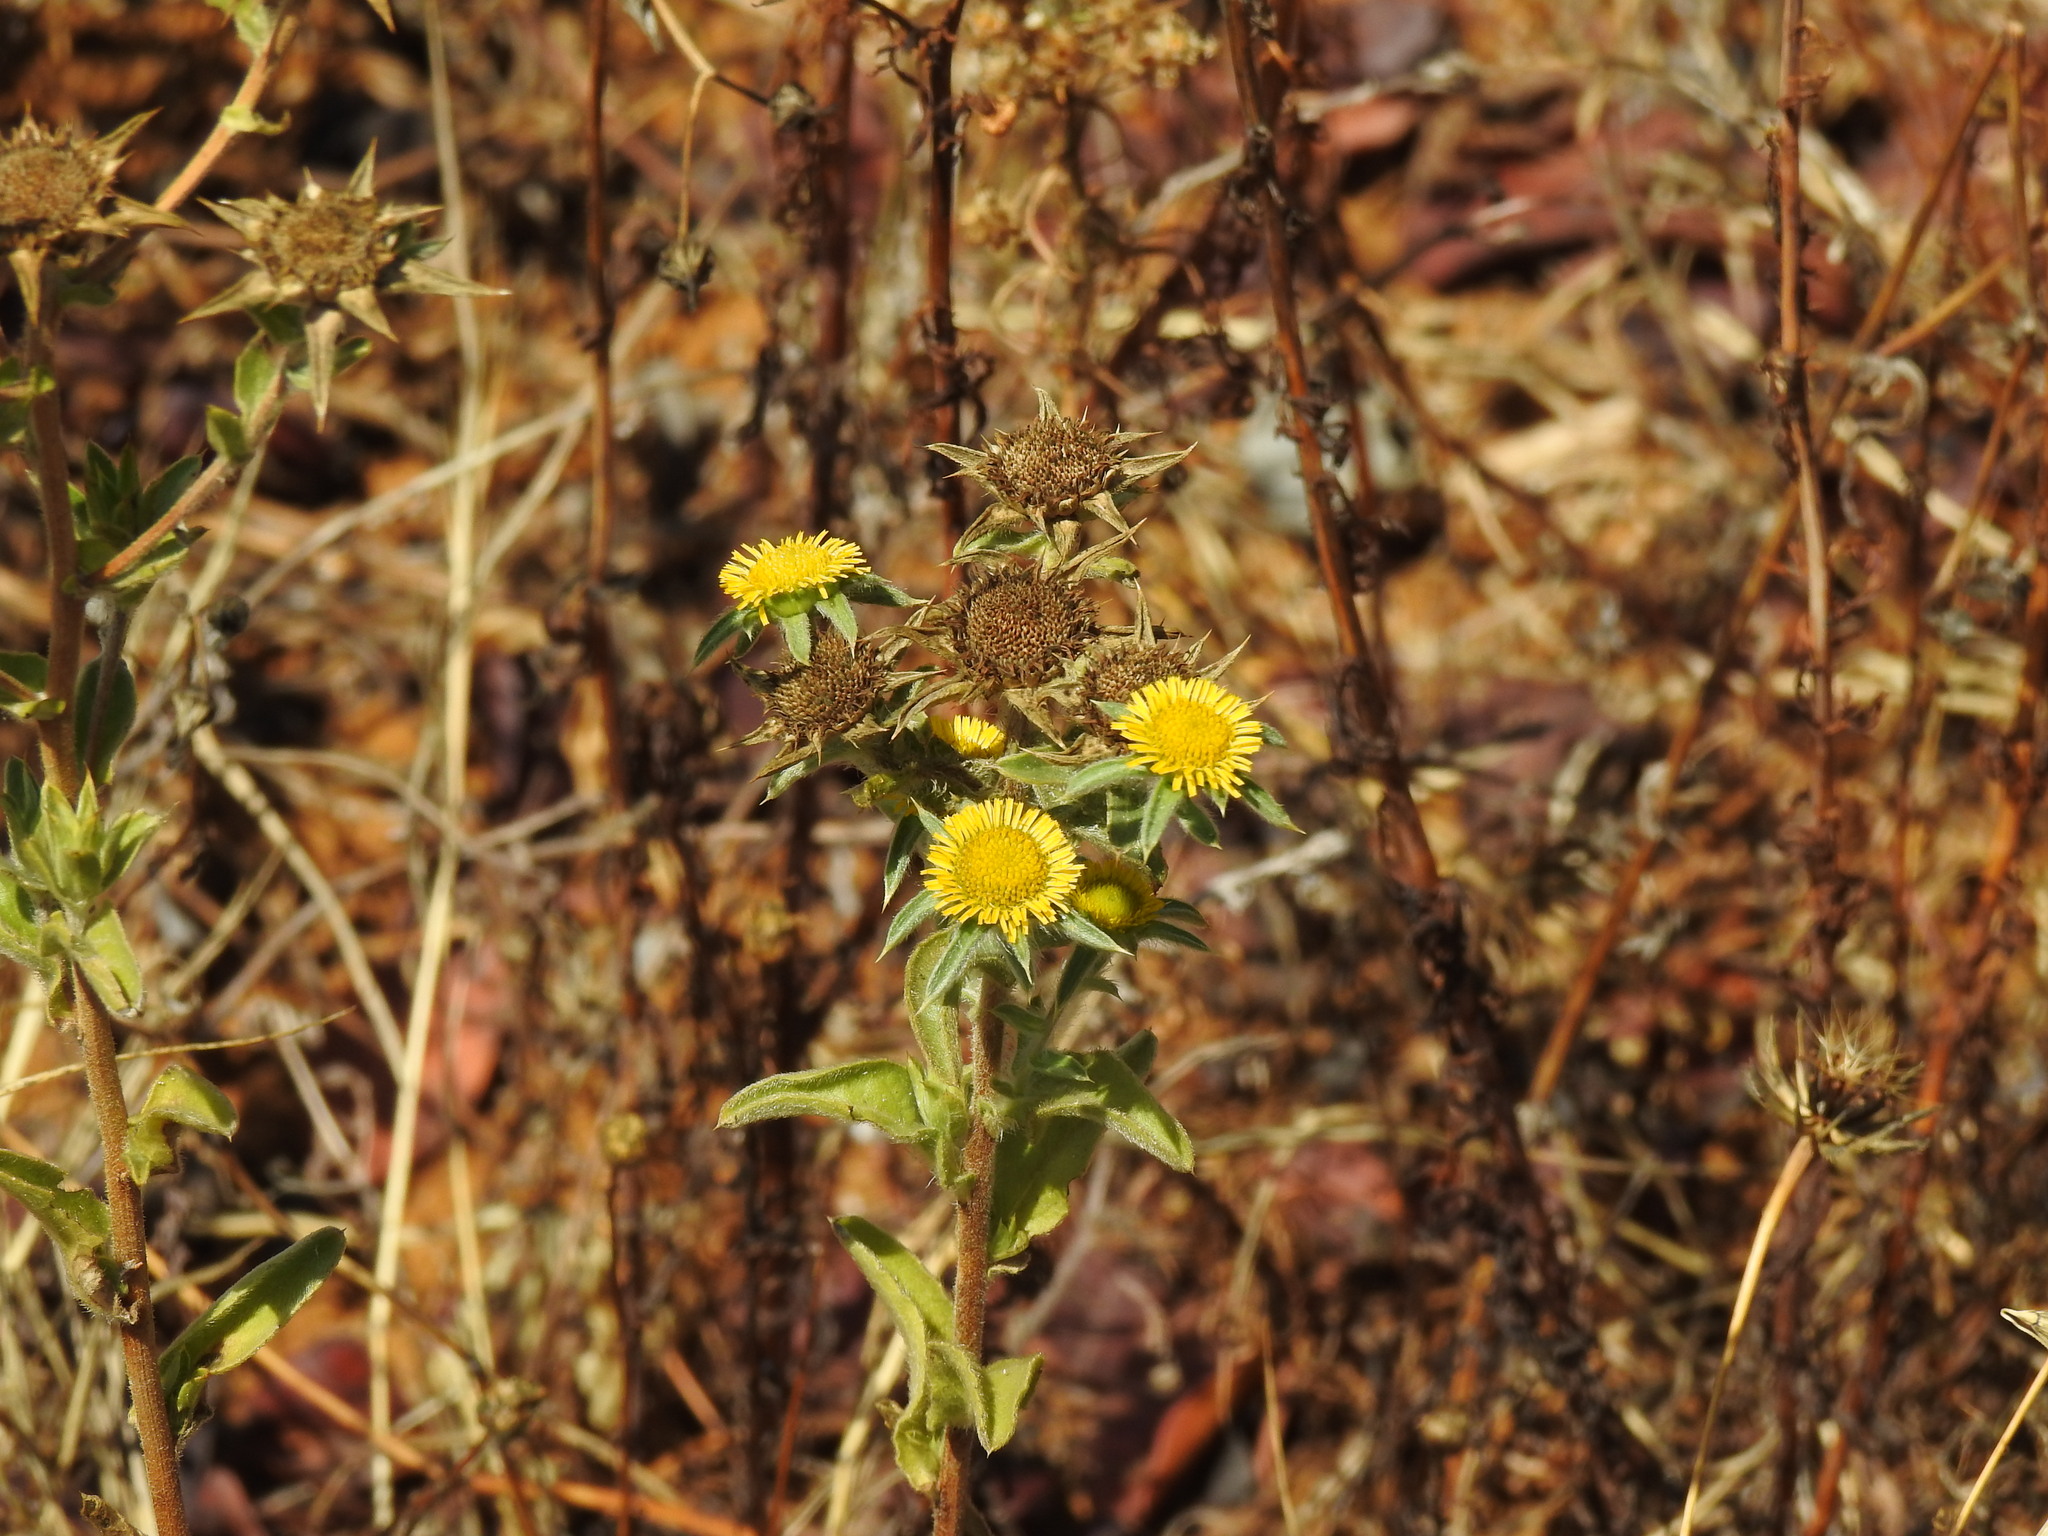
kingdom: Plantae
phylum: Tracheophyta
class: Magnoliopsida
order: Asterales
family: Asteraceae
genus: Pallenis
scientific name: Pallenis spinosa
